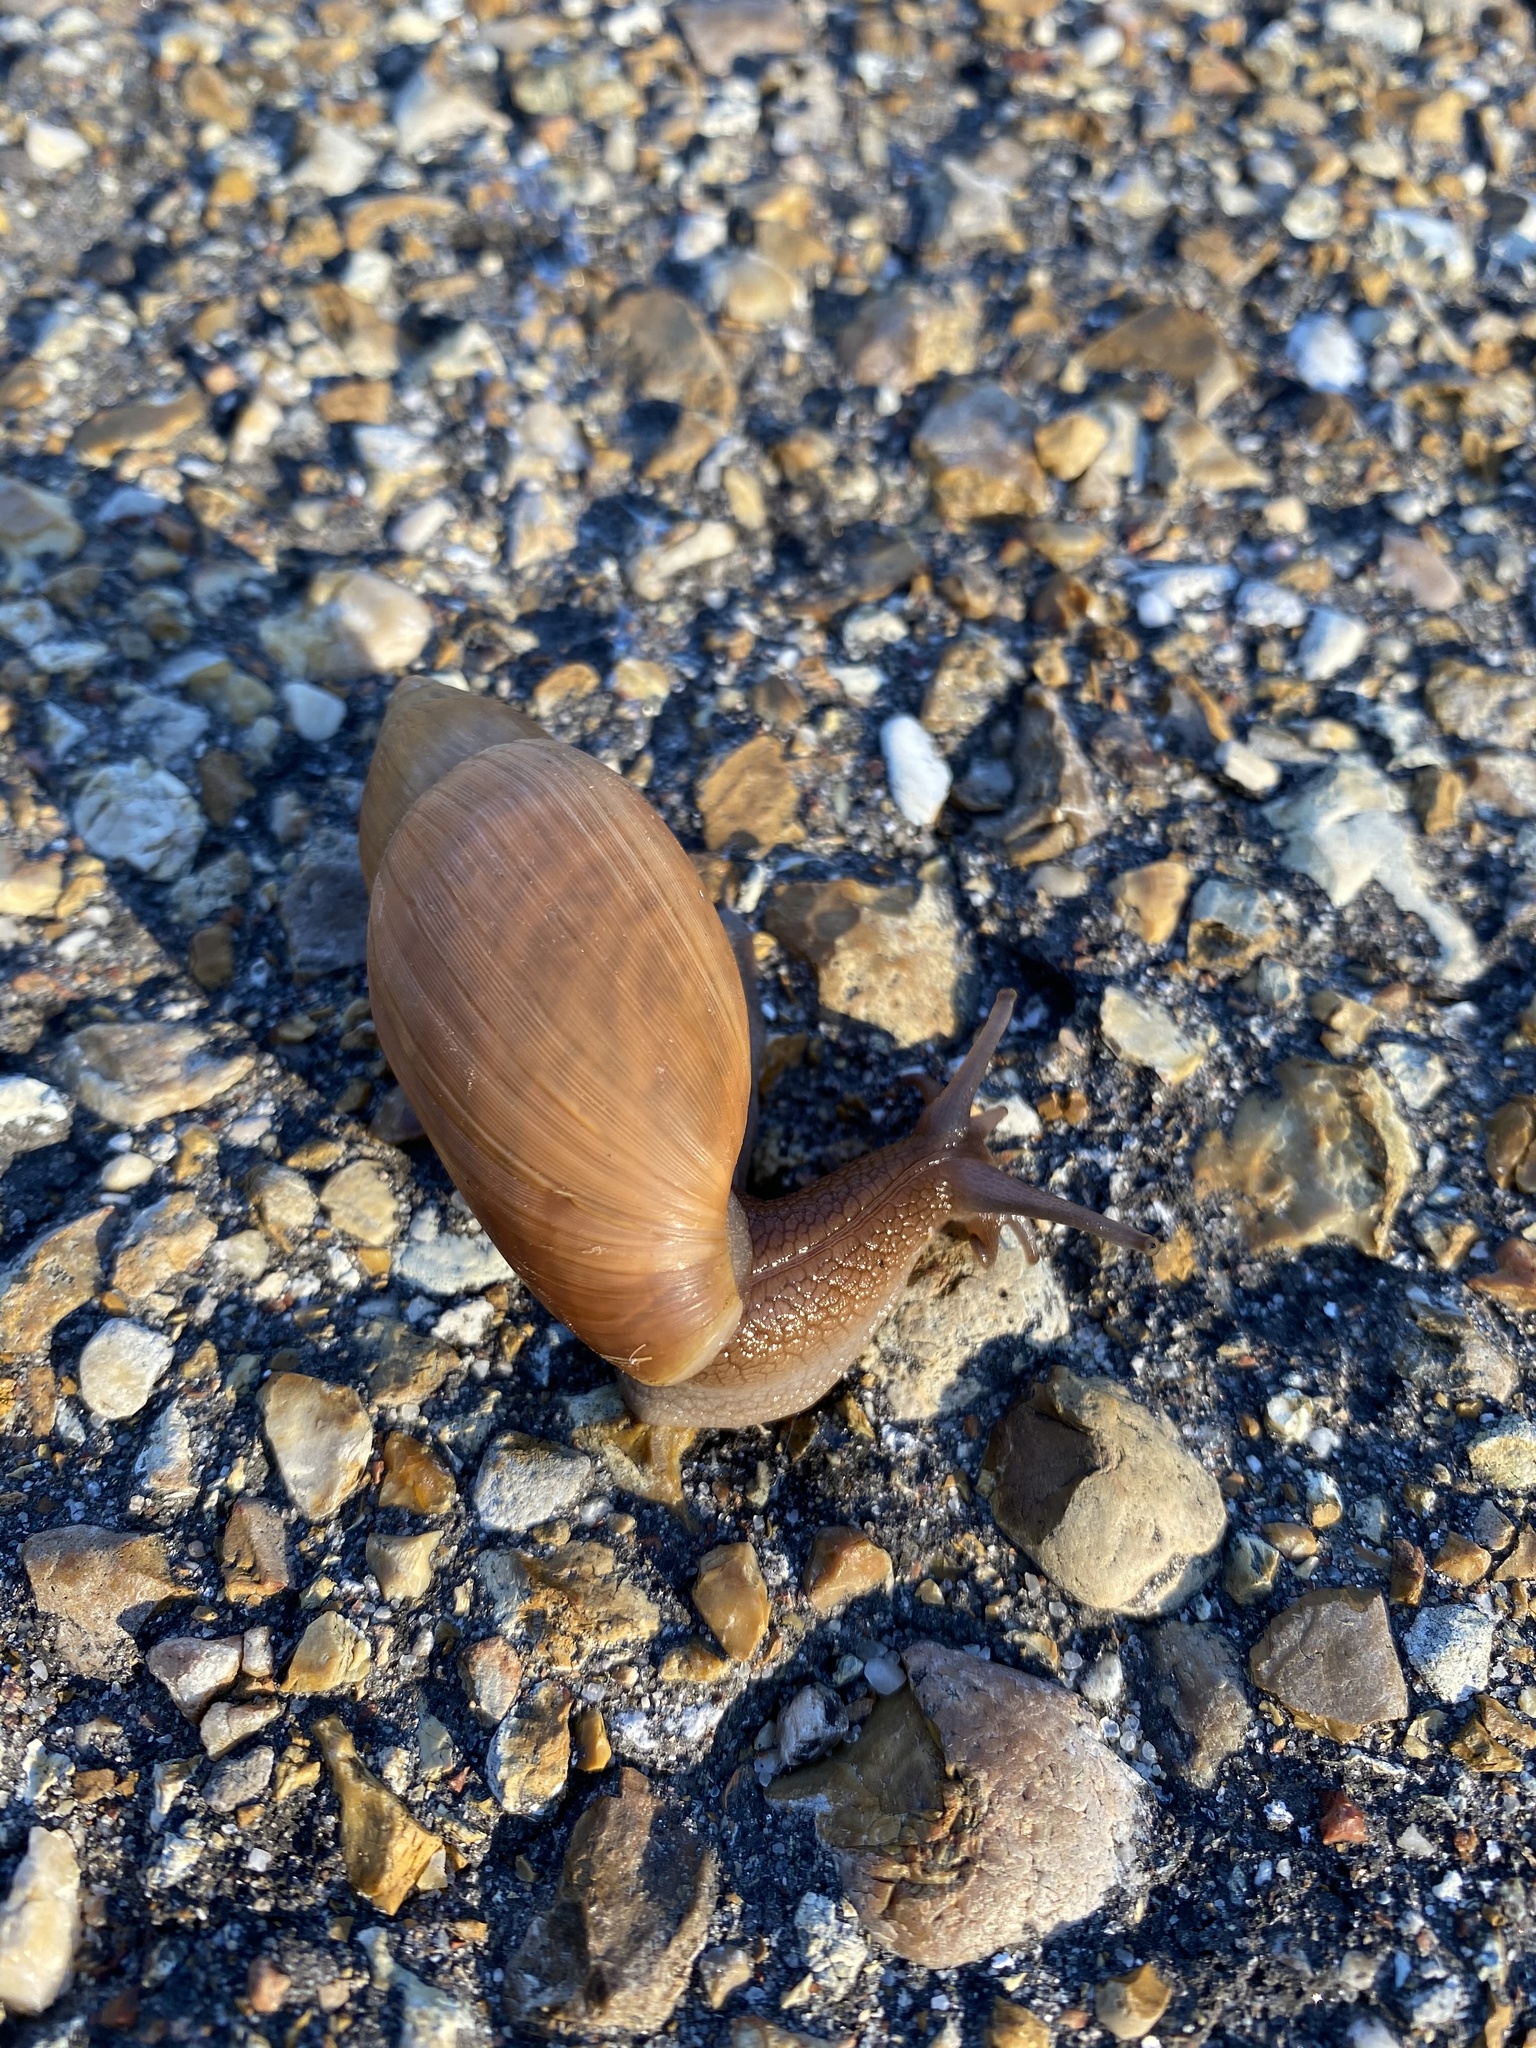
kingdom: Animalia
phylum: Mollusca
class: Gastropoda
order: Stylommatophora
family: Spiraxidae
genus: Euglandina
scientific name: Euglandina rosea
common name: Rosy wolfsnail
